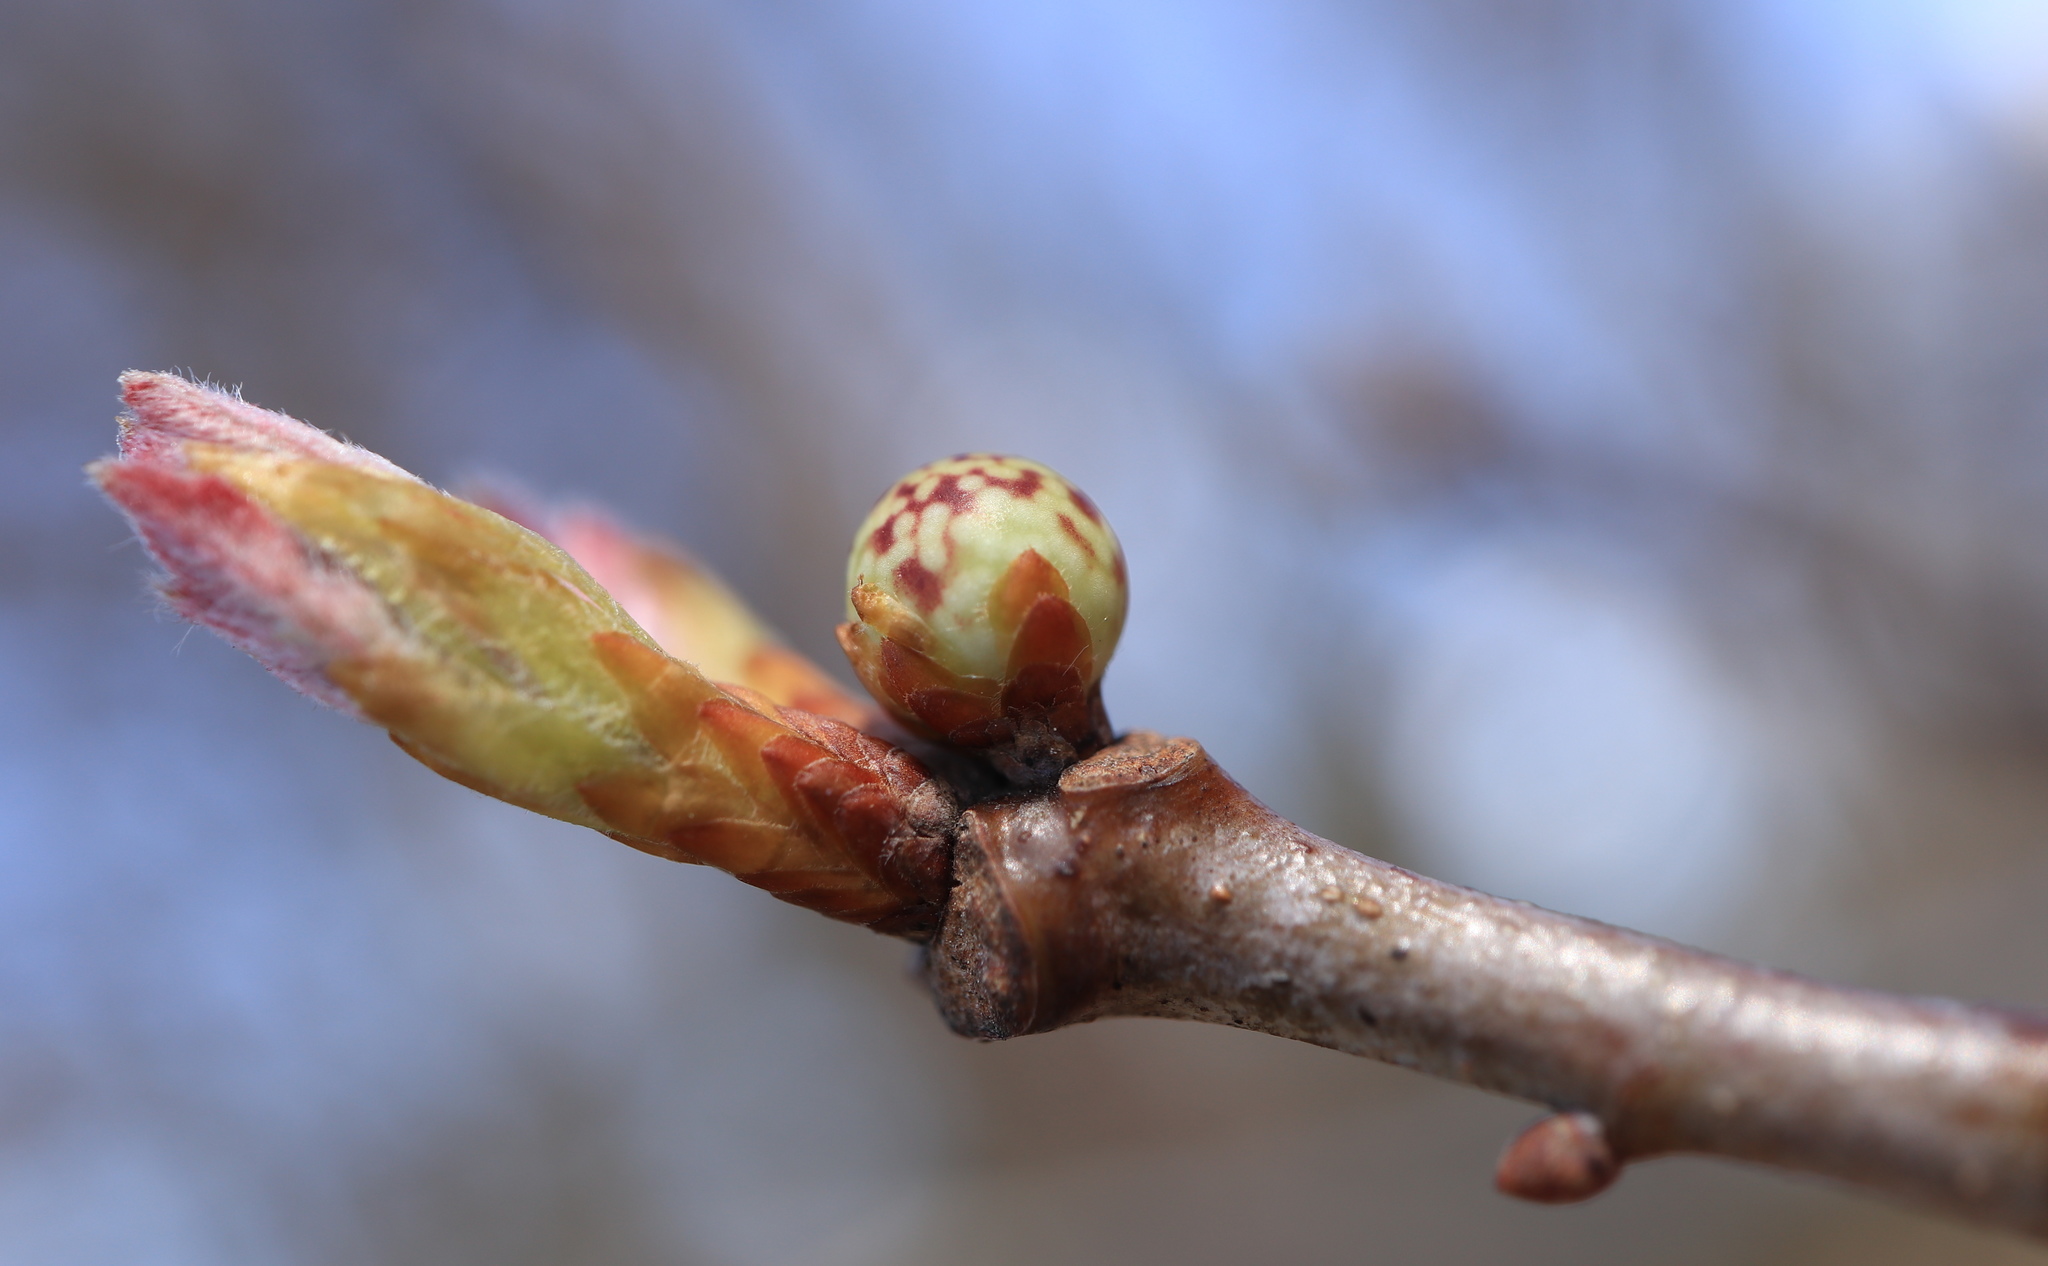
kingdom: Animalia
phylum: Arthropoda
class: Insecta
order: Hymenoptera
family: Cynipidae
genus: Andricus
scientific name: Andricus
